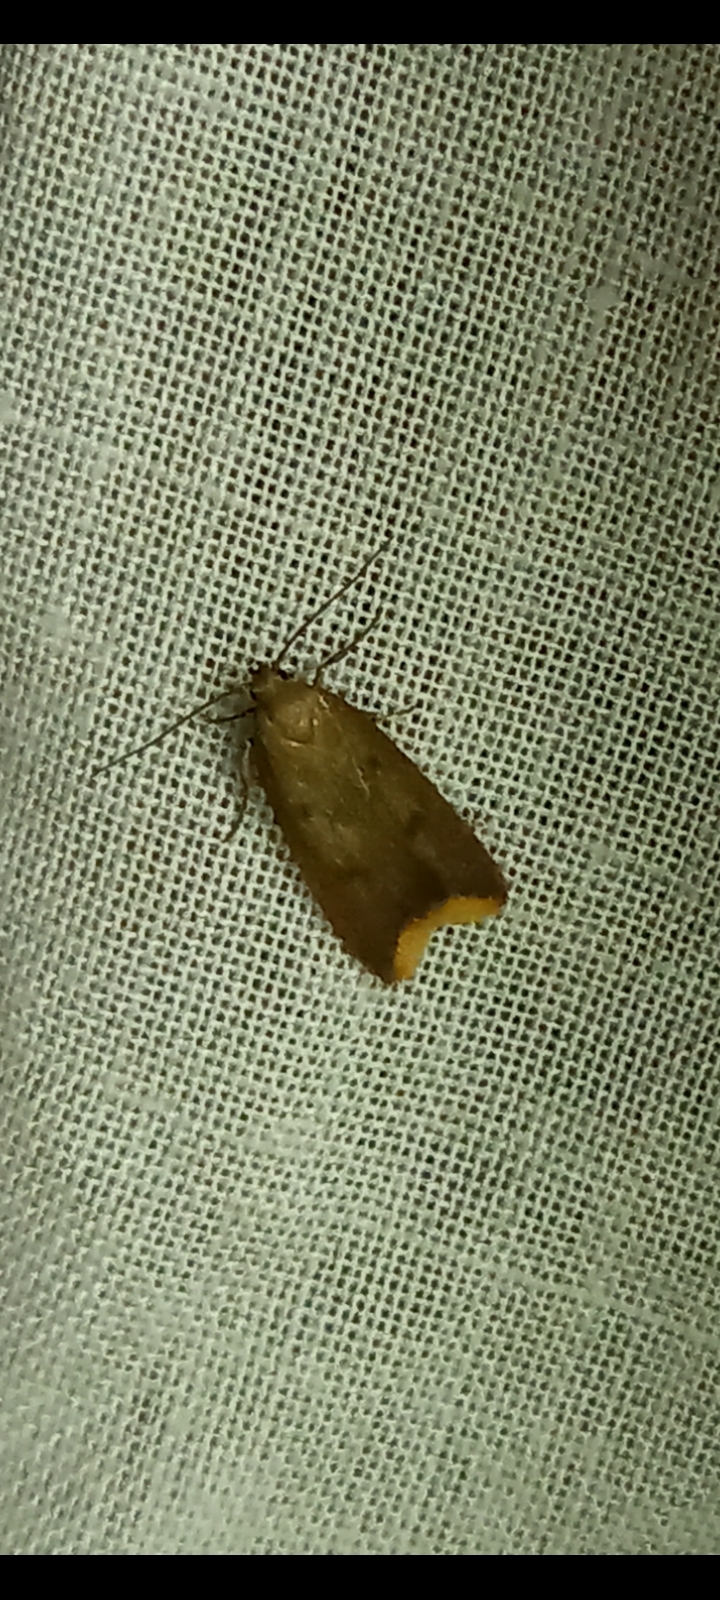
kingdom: Animalia
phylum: Arthropoda
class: Insecta
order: Lepidoptera
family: Oecophoridae
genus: Tachystola
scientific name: Tachystola acroxantha
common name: Ruddy streak
